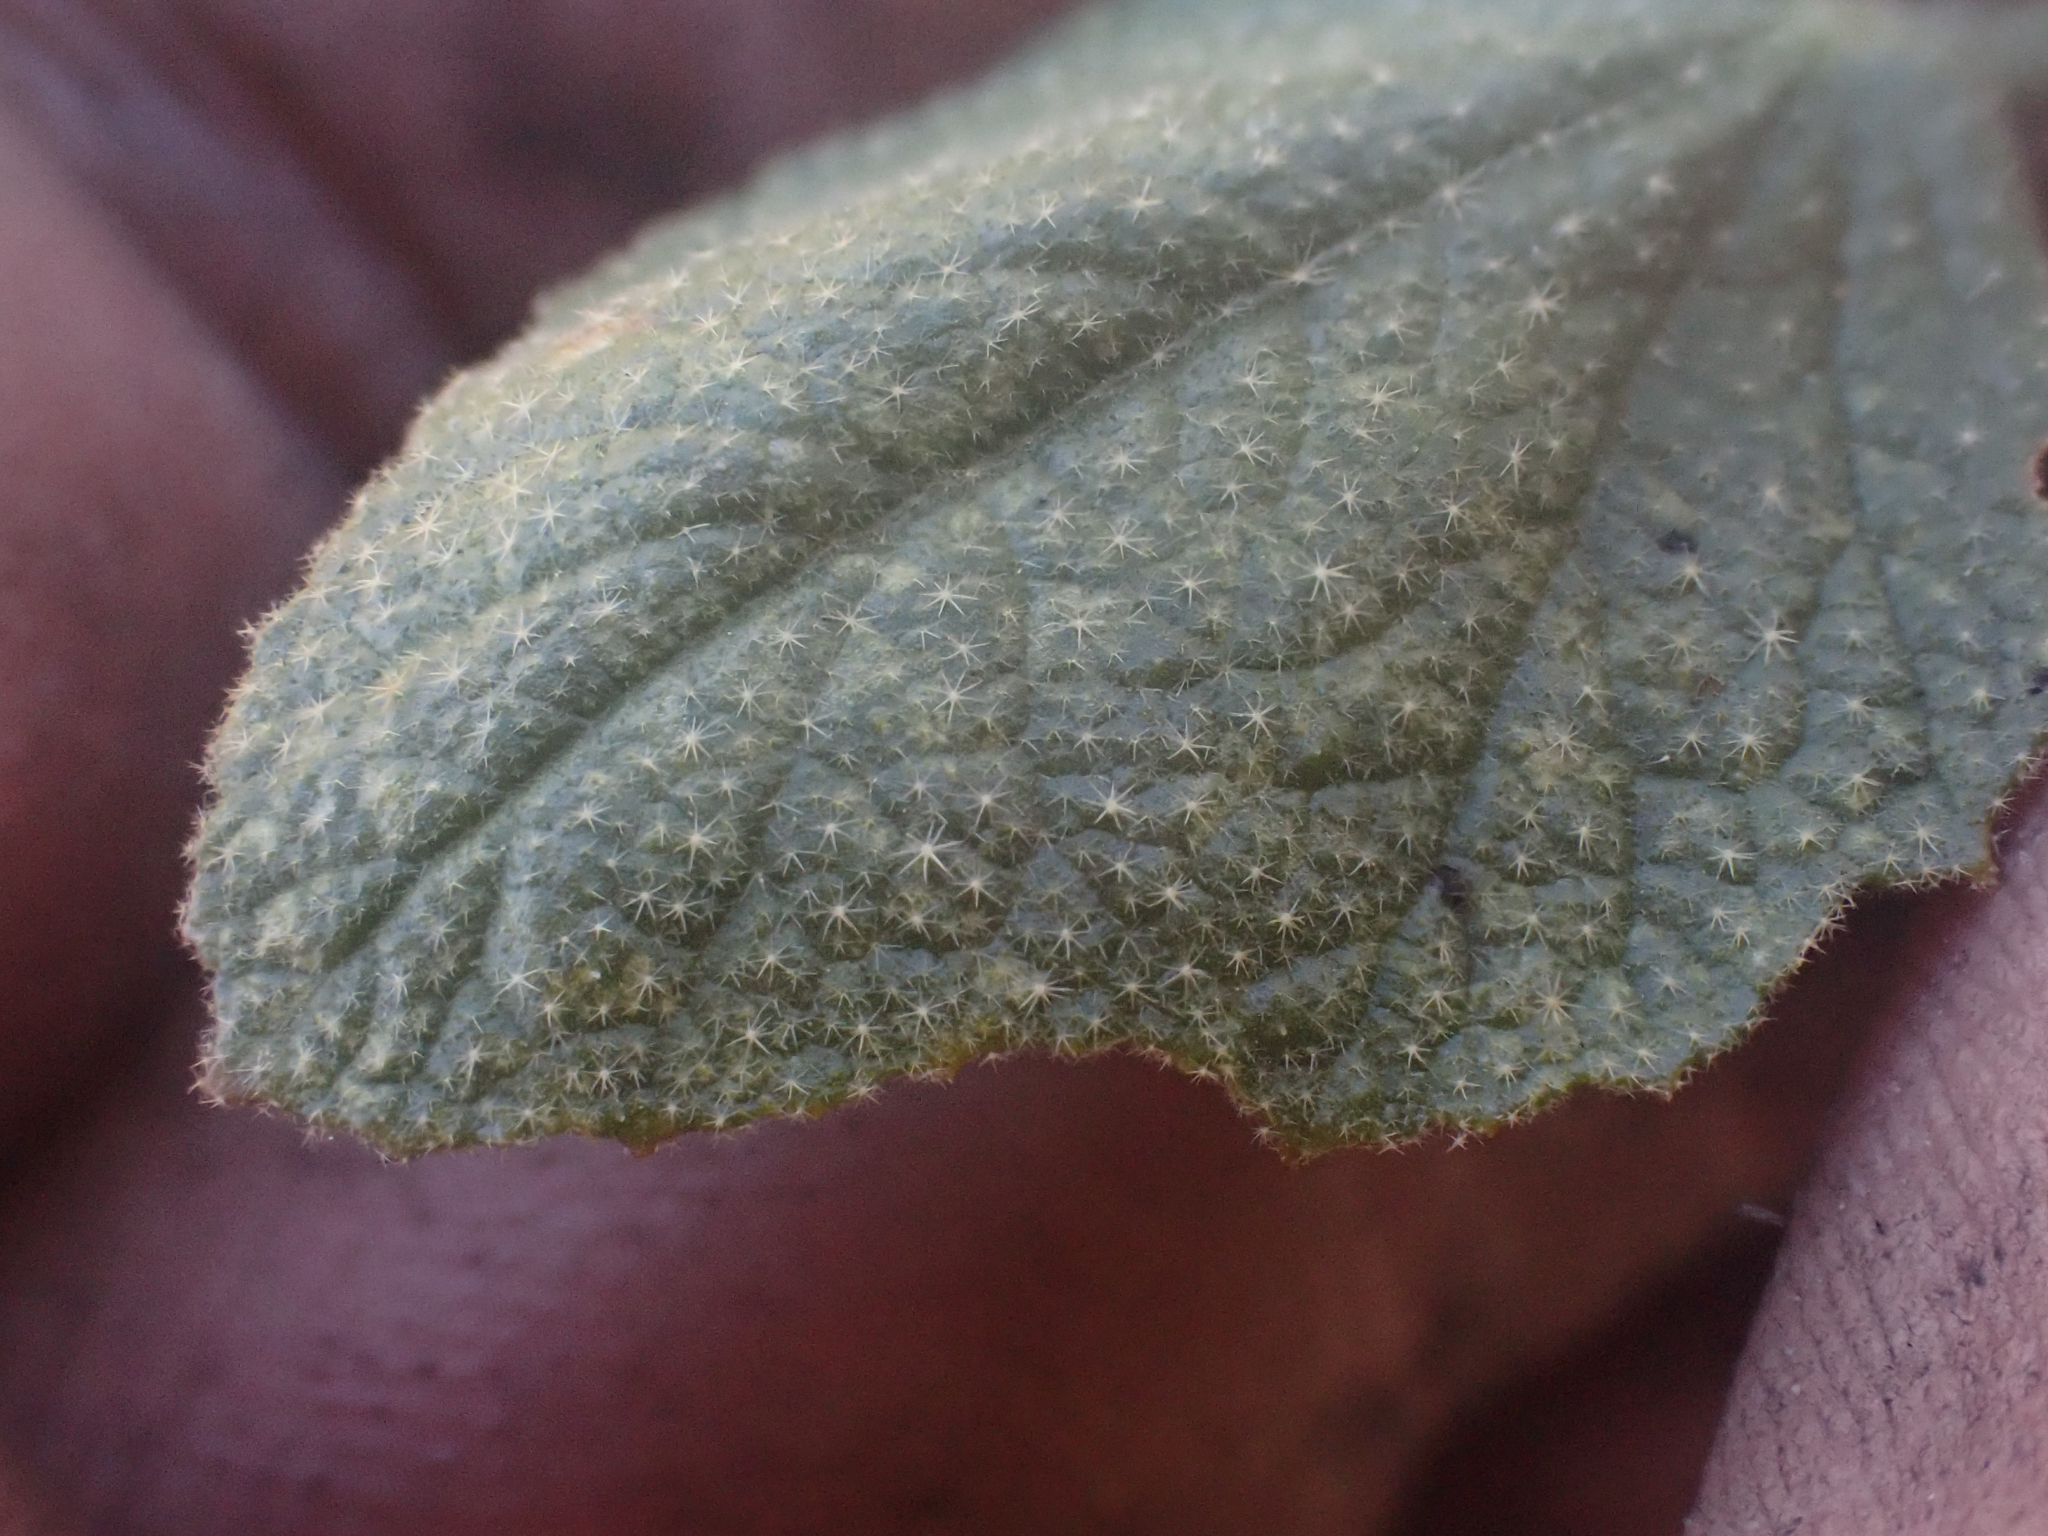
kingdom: Plantae
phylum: Tracheophyta
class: Magnoliopsida
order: Malvales
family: Malvaceae
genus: Malacothamnus
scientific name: Malacothamnus densiflorus
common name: Yellow-stem bush-mallow
